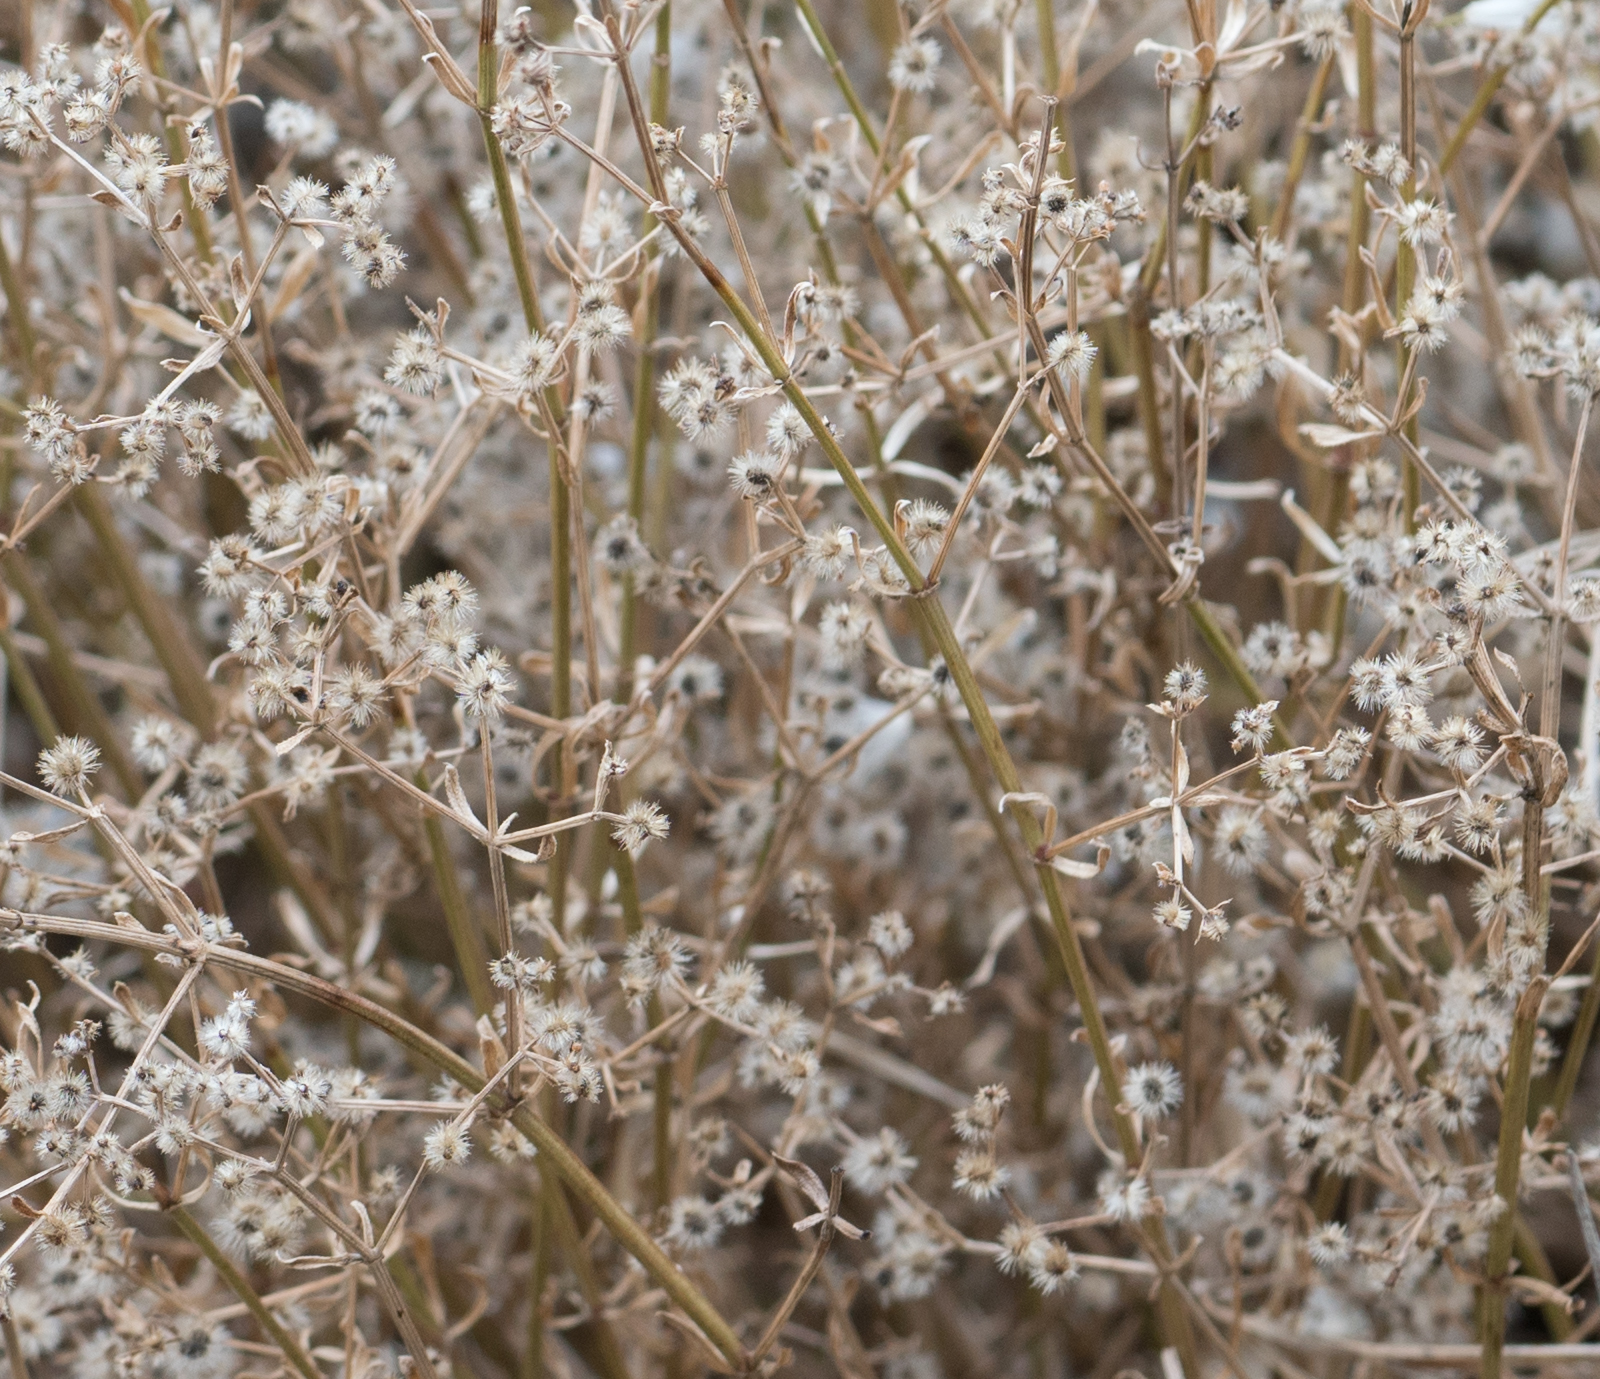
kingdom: Plantae
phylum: Tracheophyta
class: Magnoliopsida
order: Gentianales
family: Rubiaceae
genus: Galium
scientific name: Galium angustifolium
